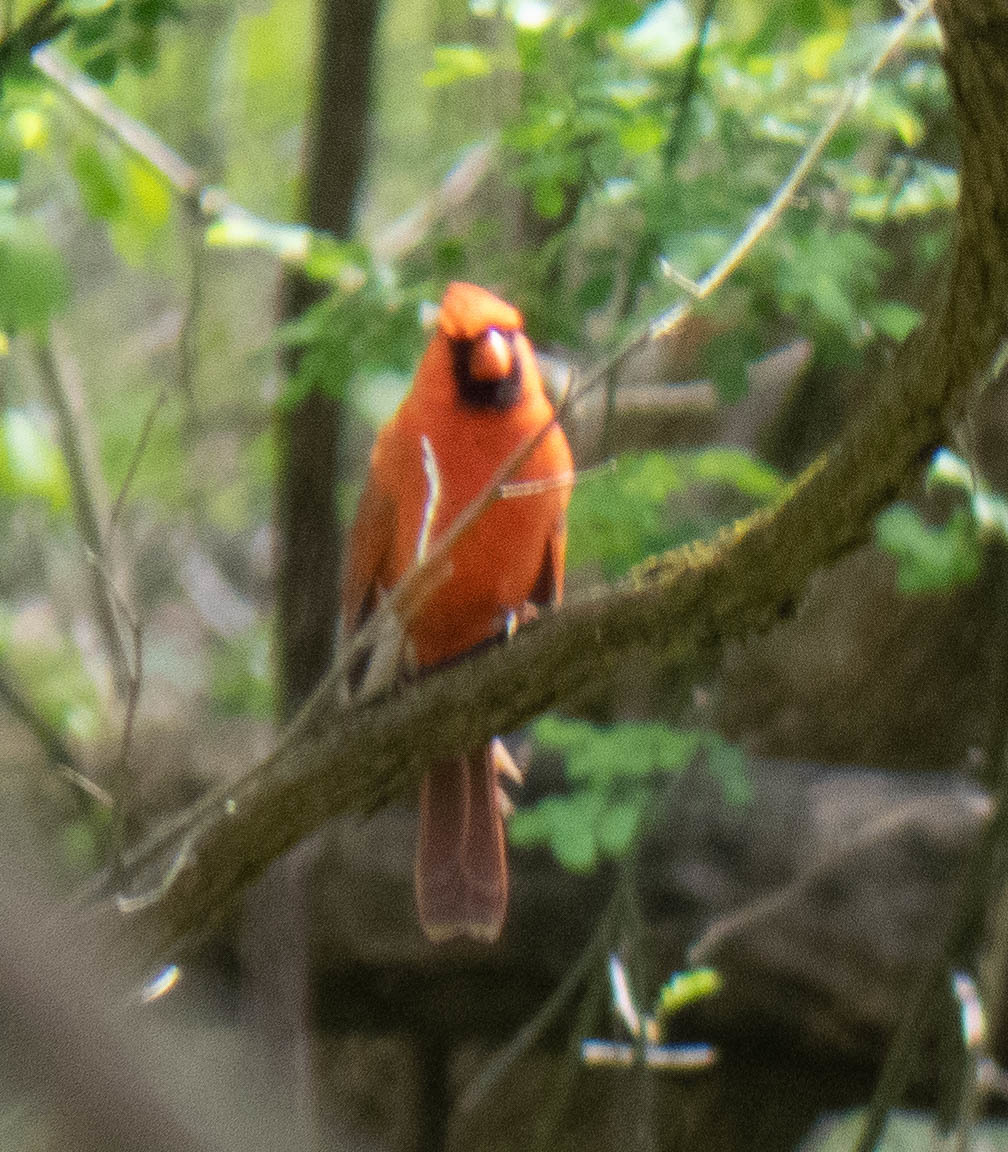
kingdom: Animalia
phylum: Chordata
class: Aves
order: Passeriformes
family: Cardinalidae
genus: Cardinalis
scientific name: Cardinalis cardinalis
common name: Northern cardinal
